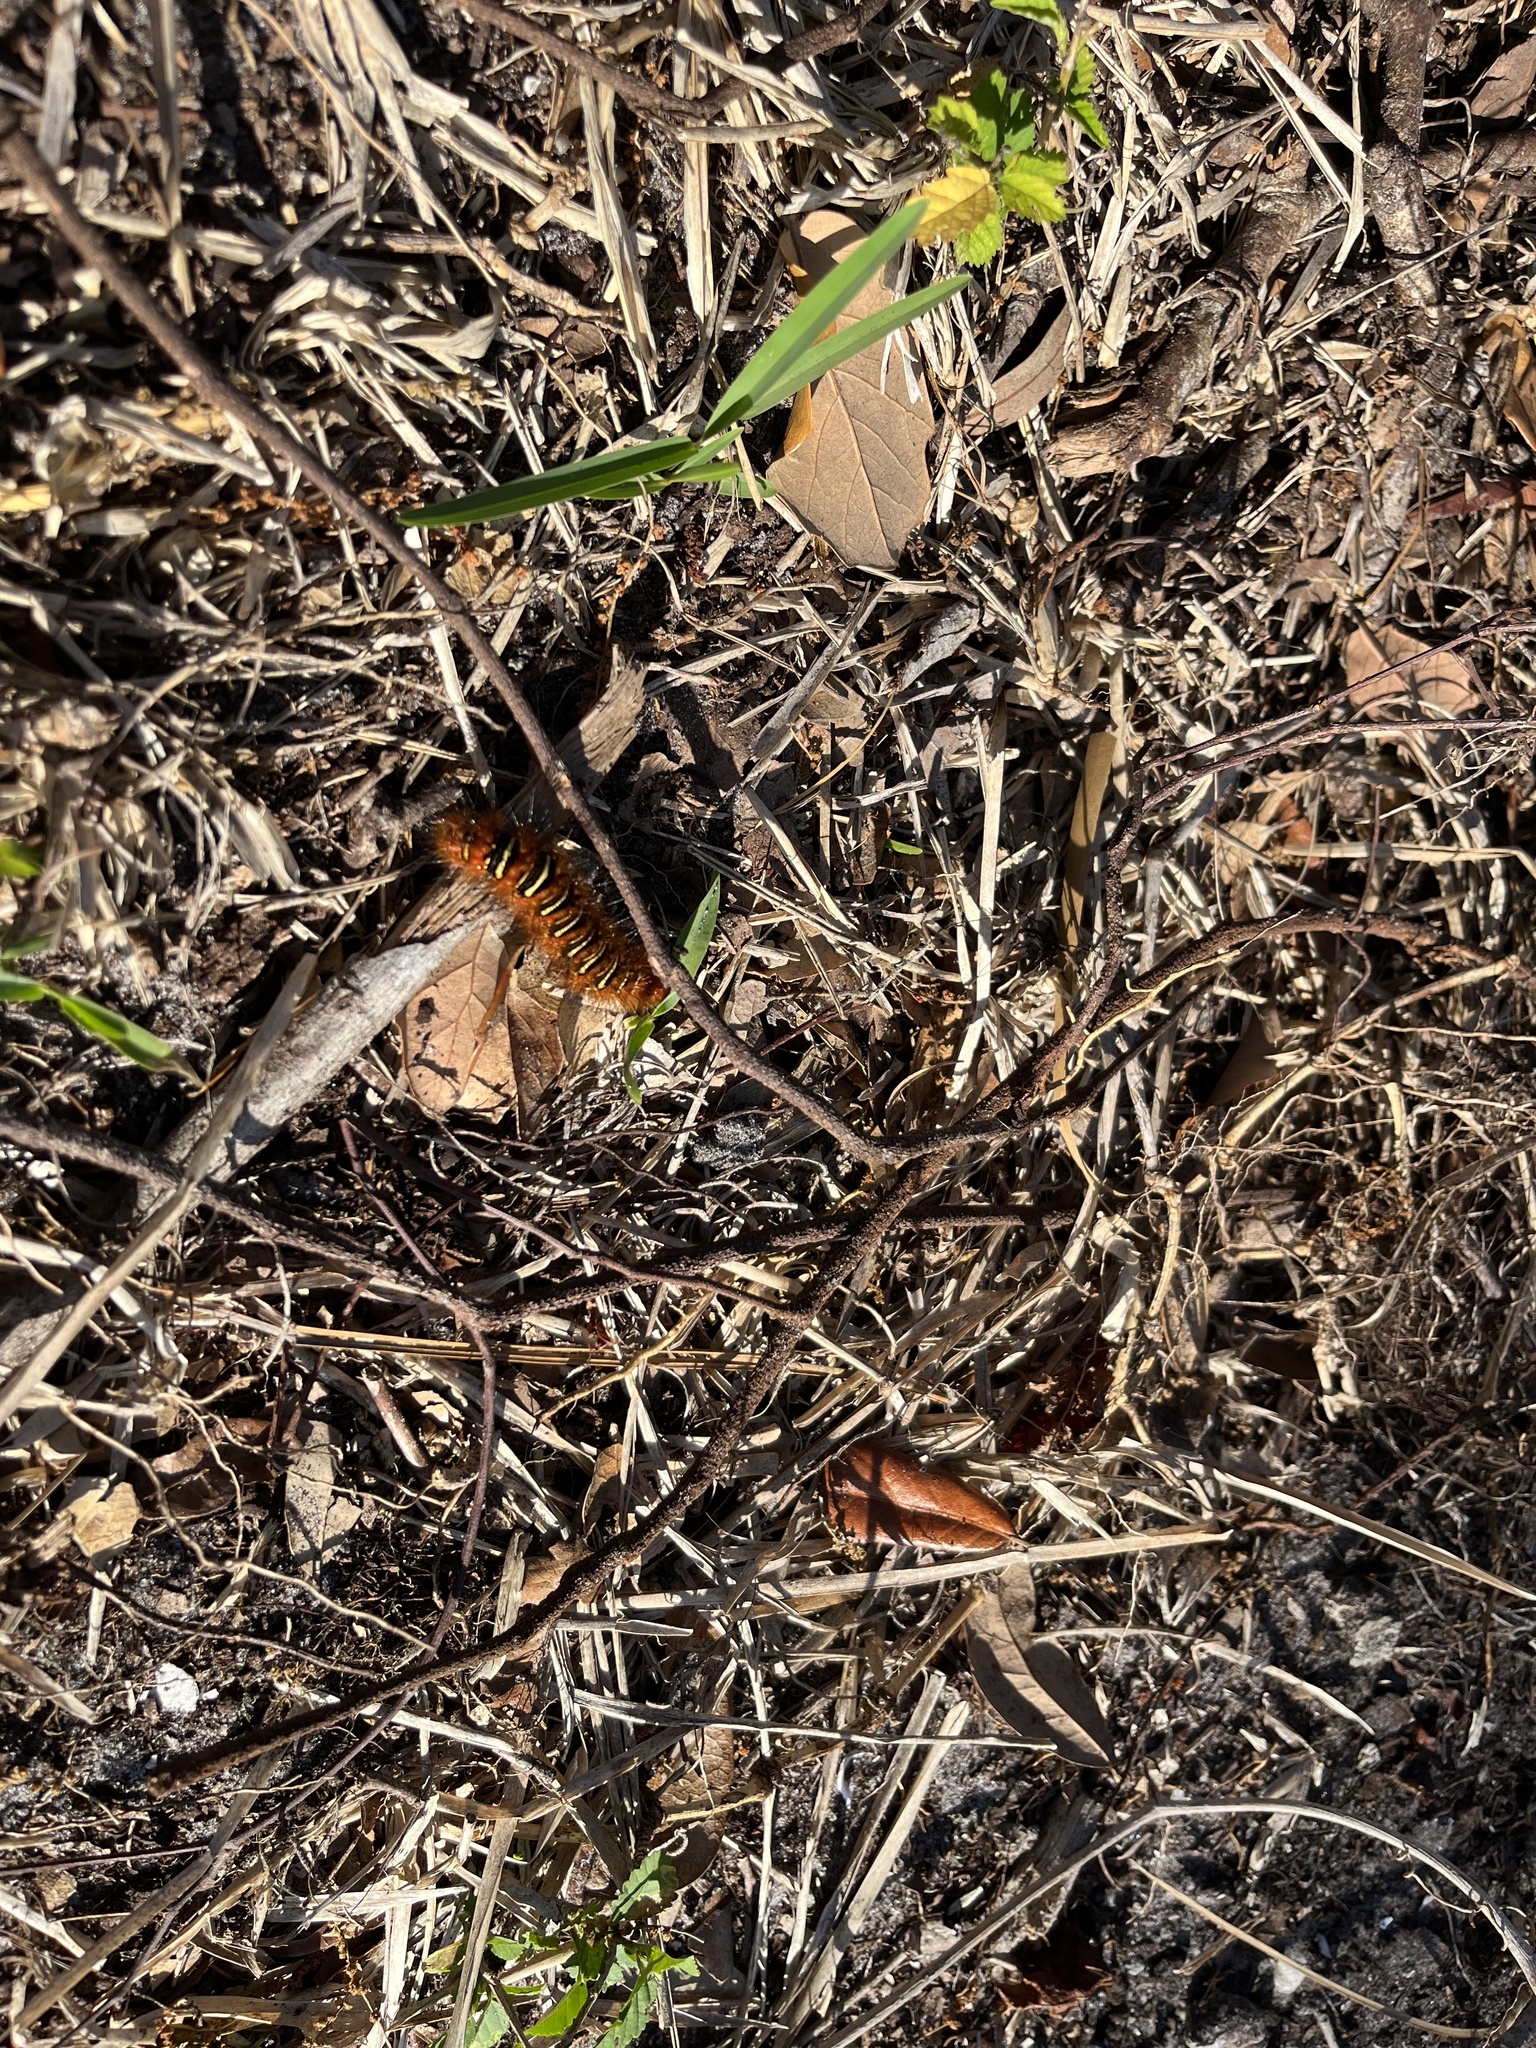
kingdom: Animalia
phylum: Arthropoda
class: Insecta
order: Lepidoptera
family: Erebidae
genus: Seirarctia
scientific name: Seirarctia echo
